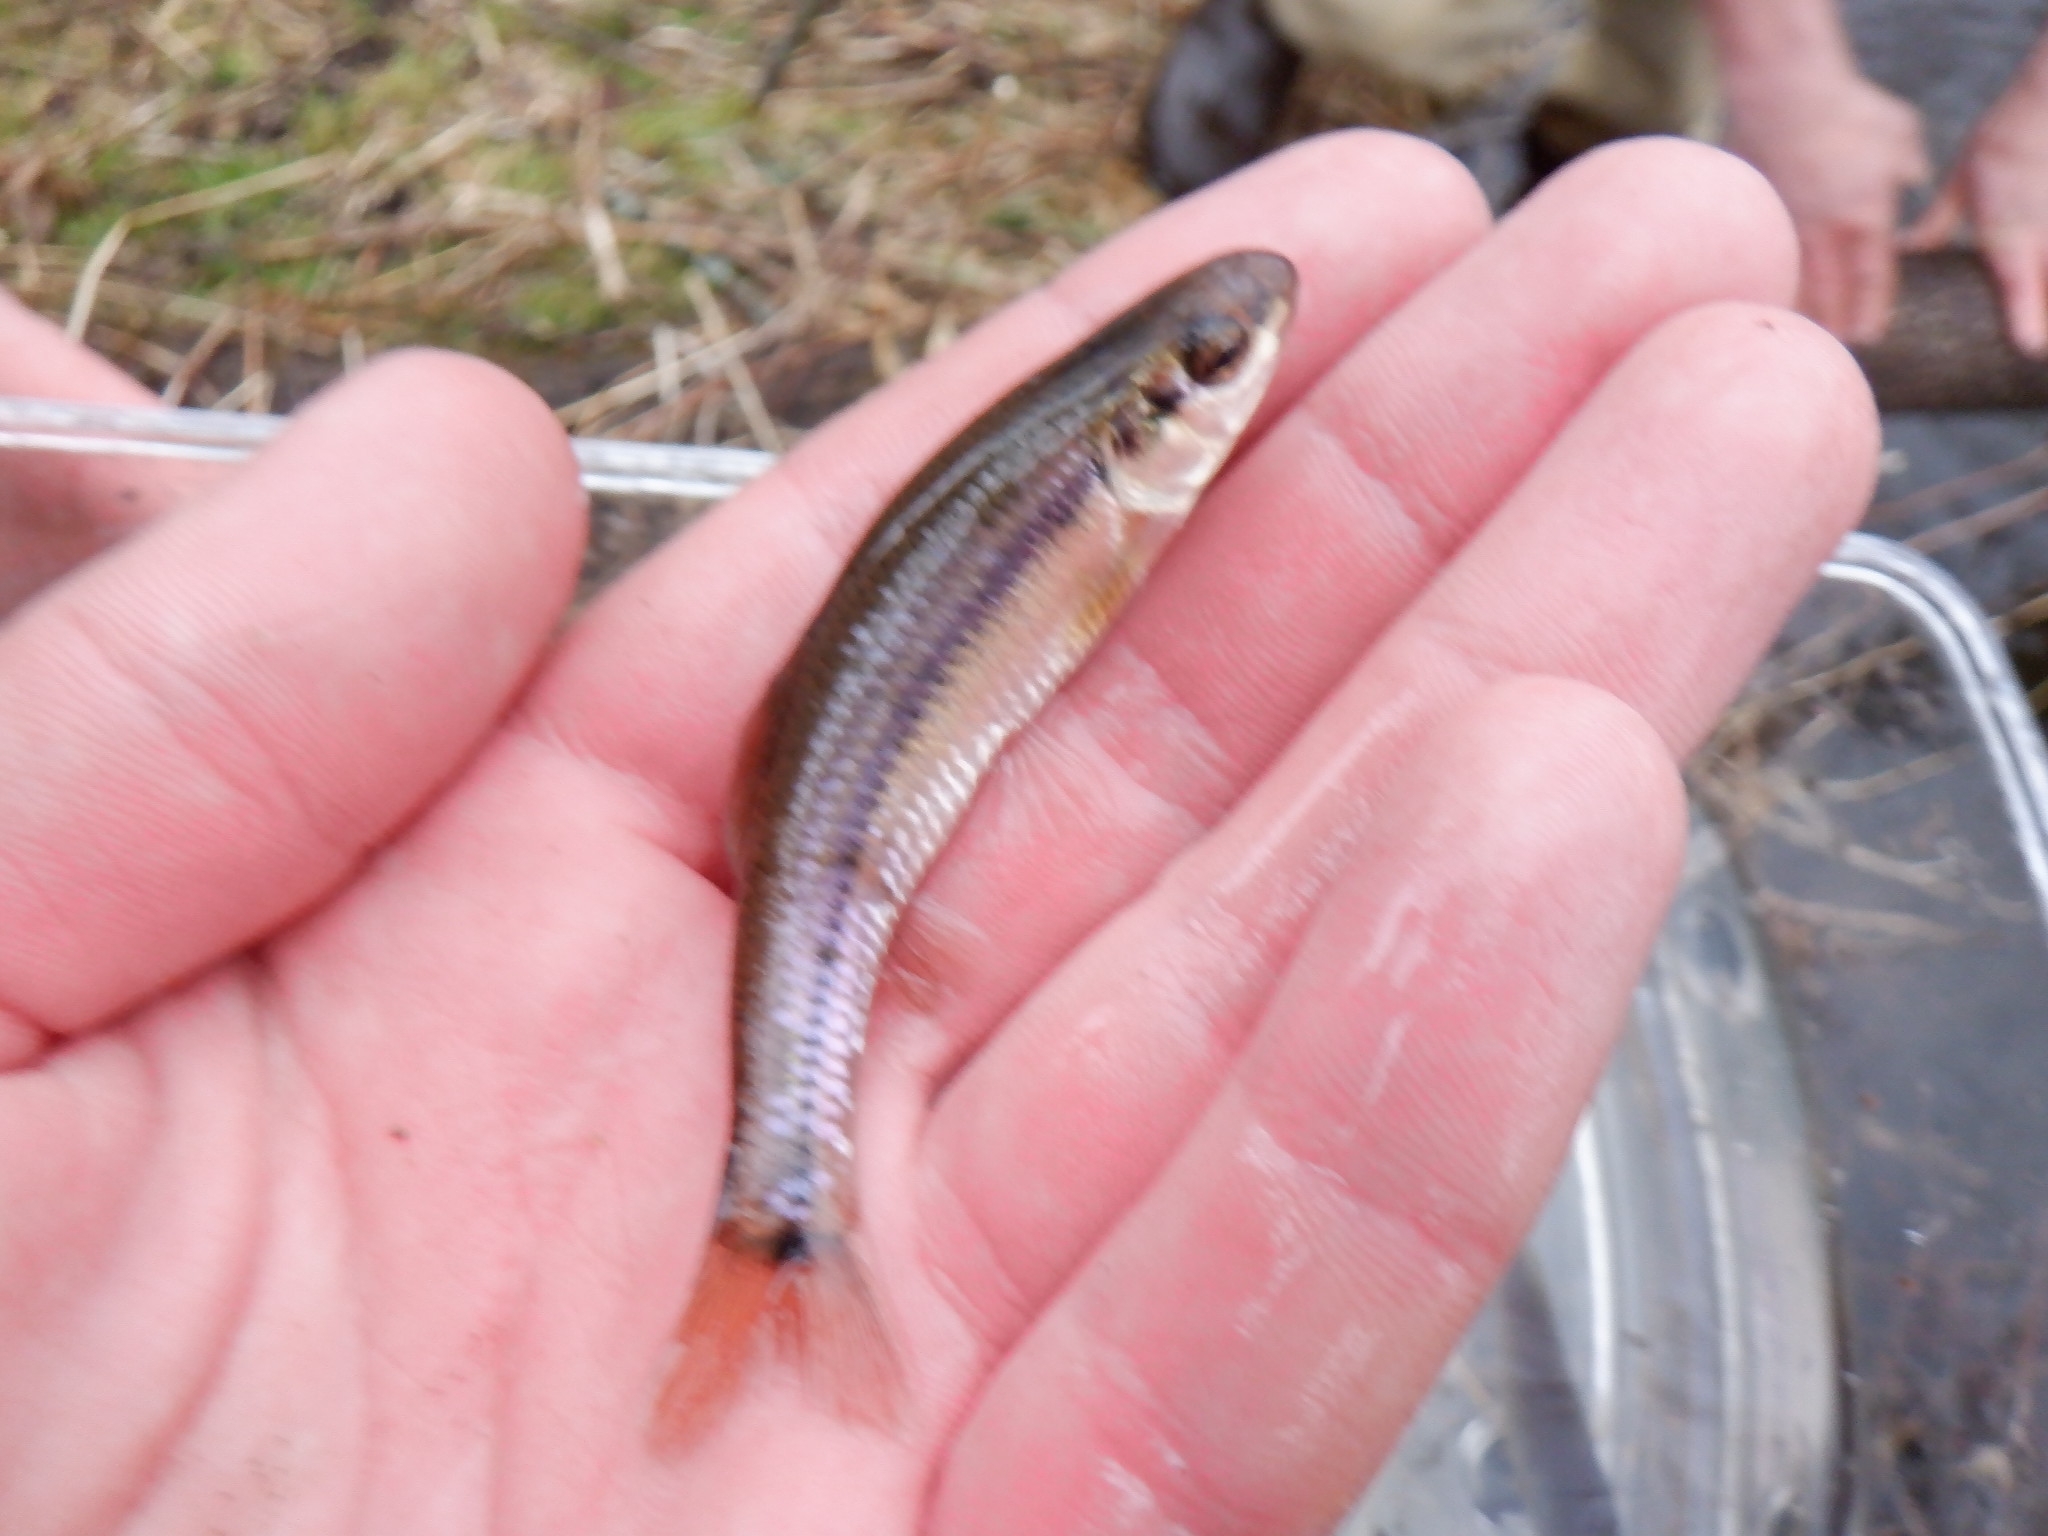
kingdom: Animalia
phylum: Chordata
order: Cypriniformes
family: Cyprinidae
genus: Pimephales
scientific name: Pimephales notatus
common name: Bluntnose minnow
